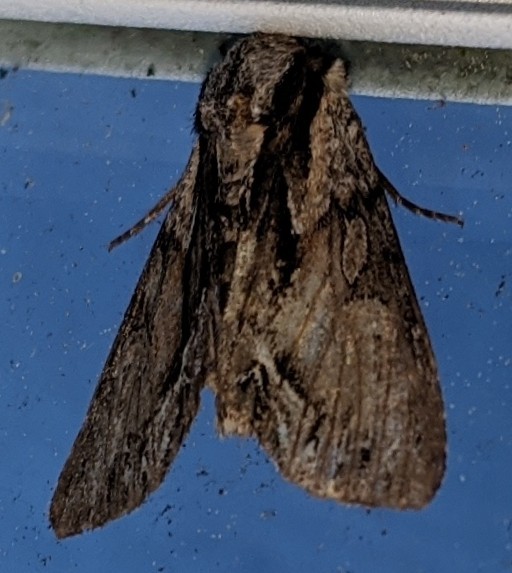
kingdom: Animalia
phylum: Arthropoda
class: Insecta
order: Lepidoptera
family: Noctuidae
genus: Hyppa
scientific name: Hyppa xylinoides
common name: Common hyppa moth
